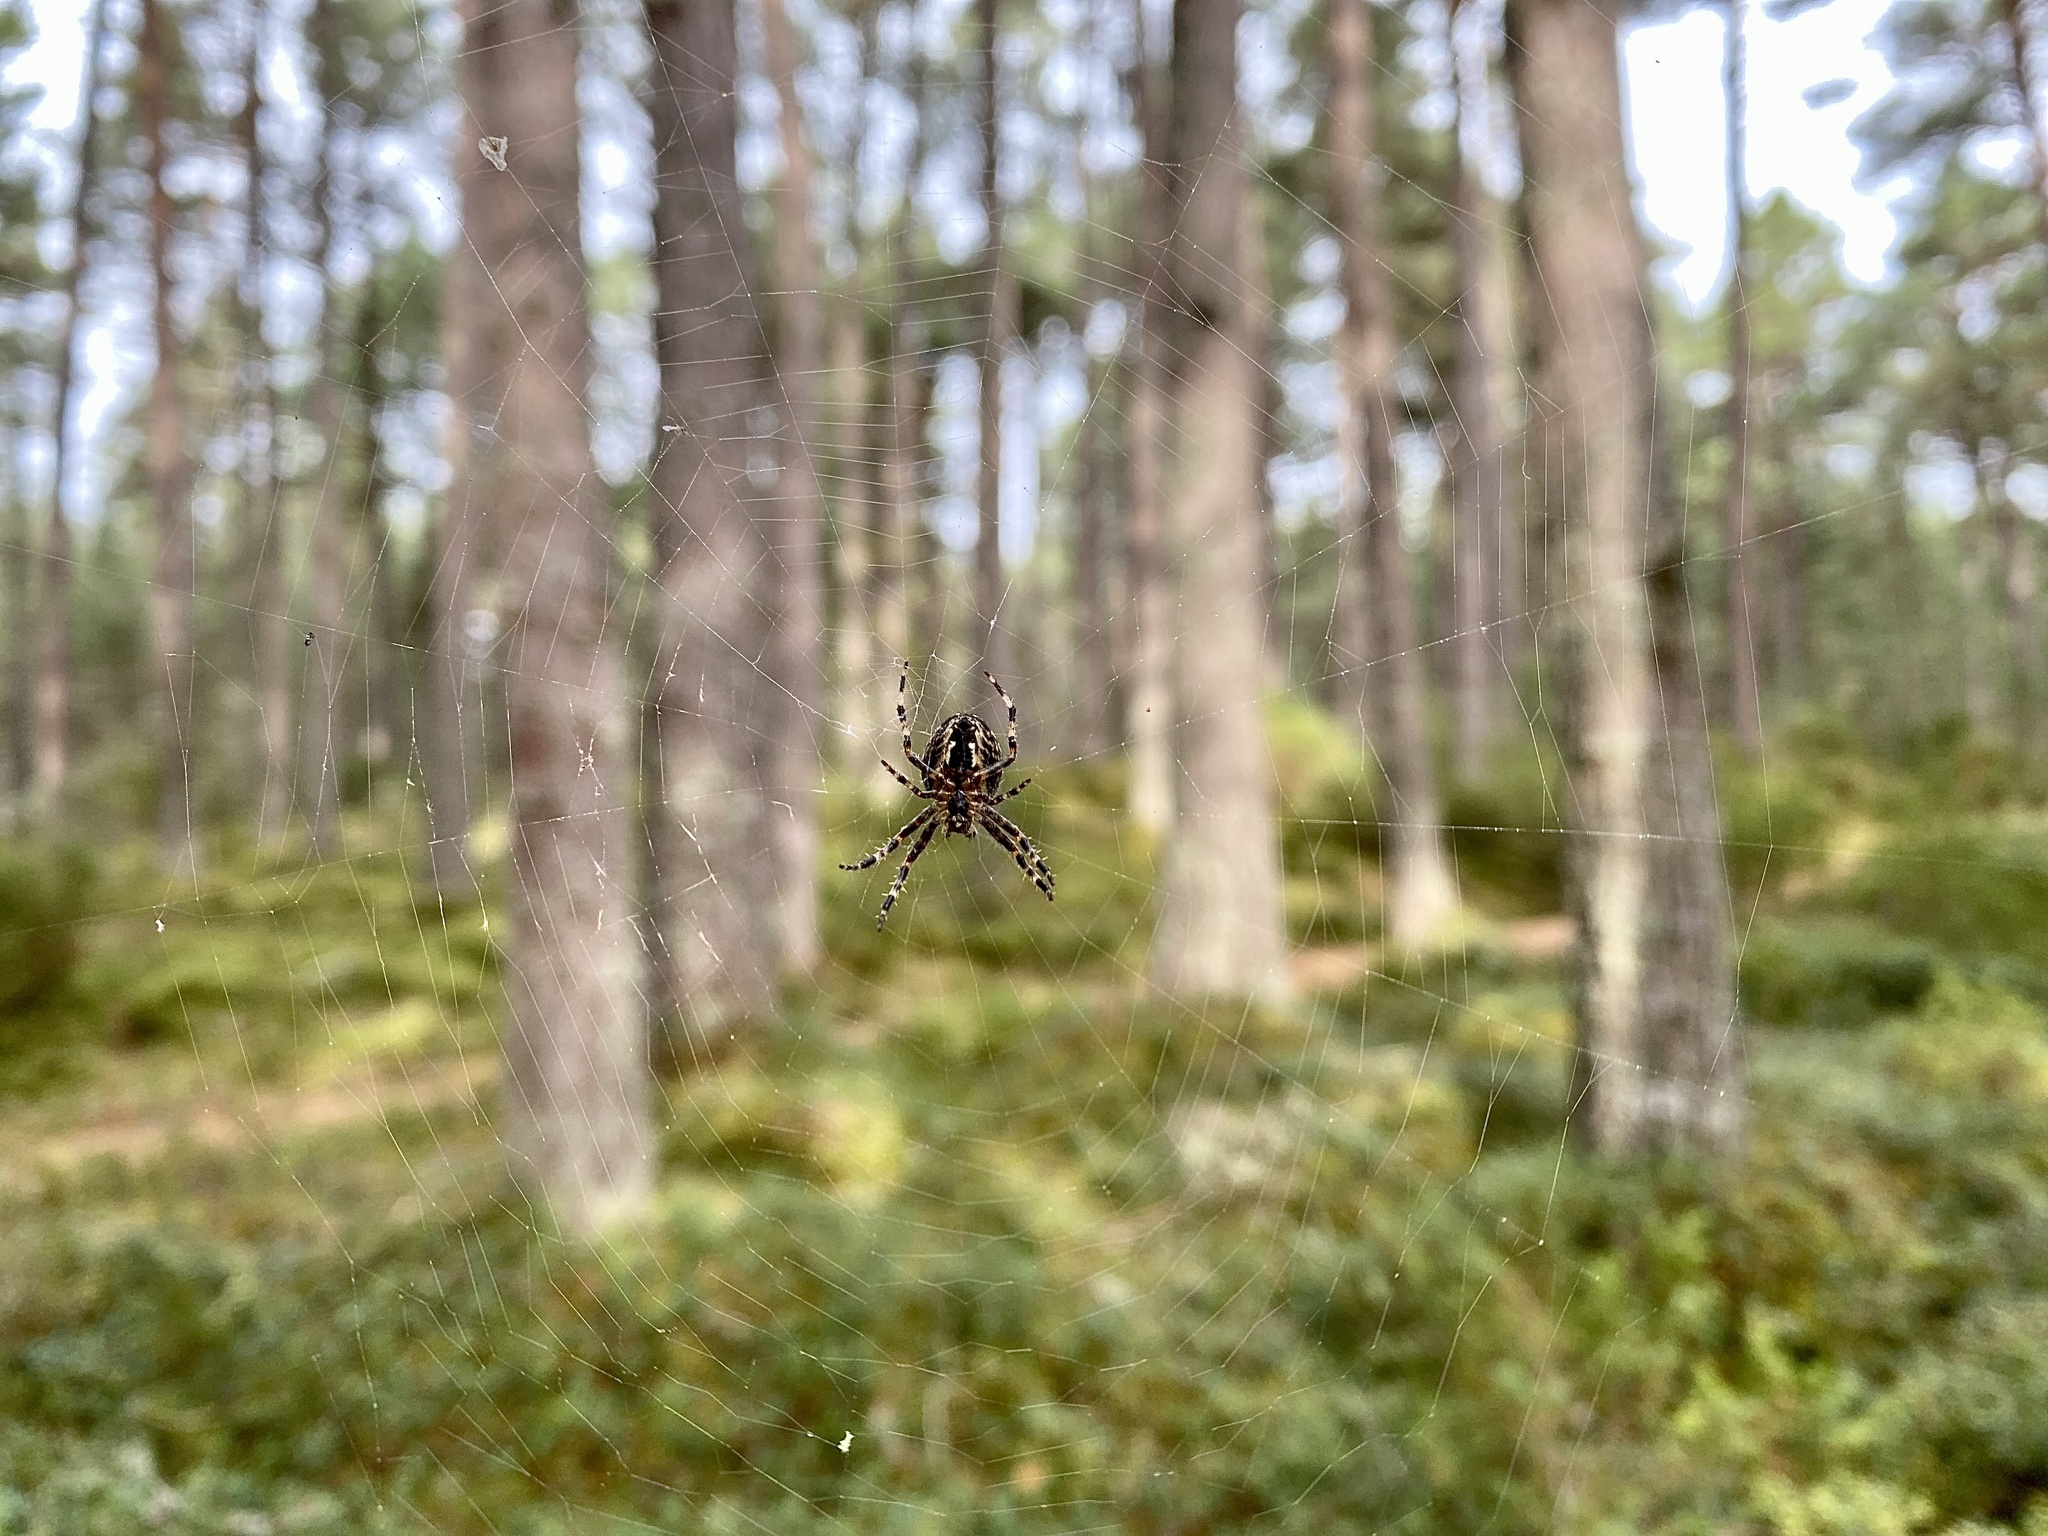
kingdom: Animalia
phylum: Arthropoda
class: Arachnida
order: Araneae
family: Araneidae
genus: Araneus
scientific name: Araneus diadematus
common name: Cross orbweaver
